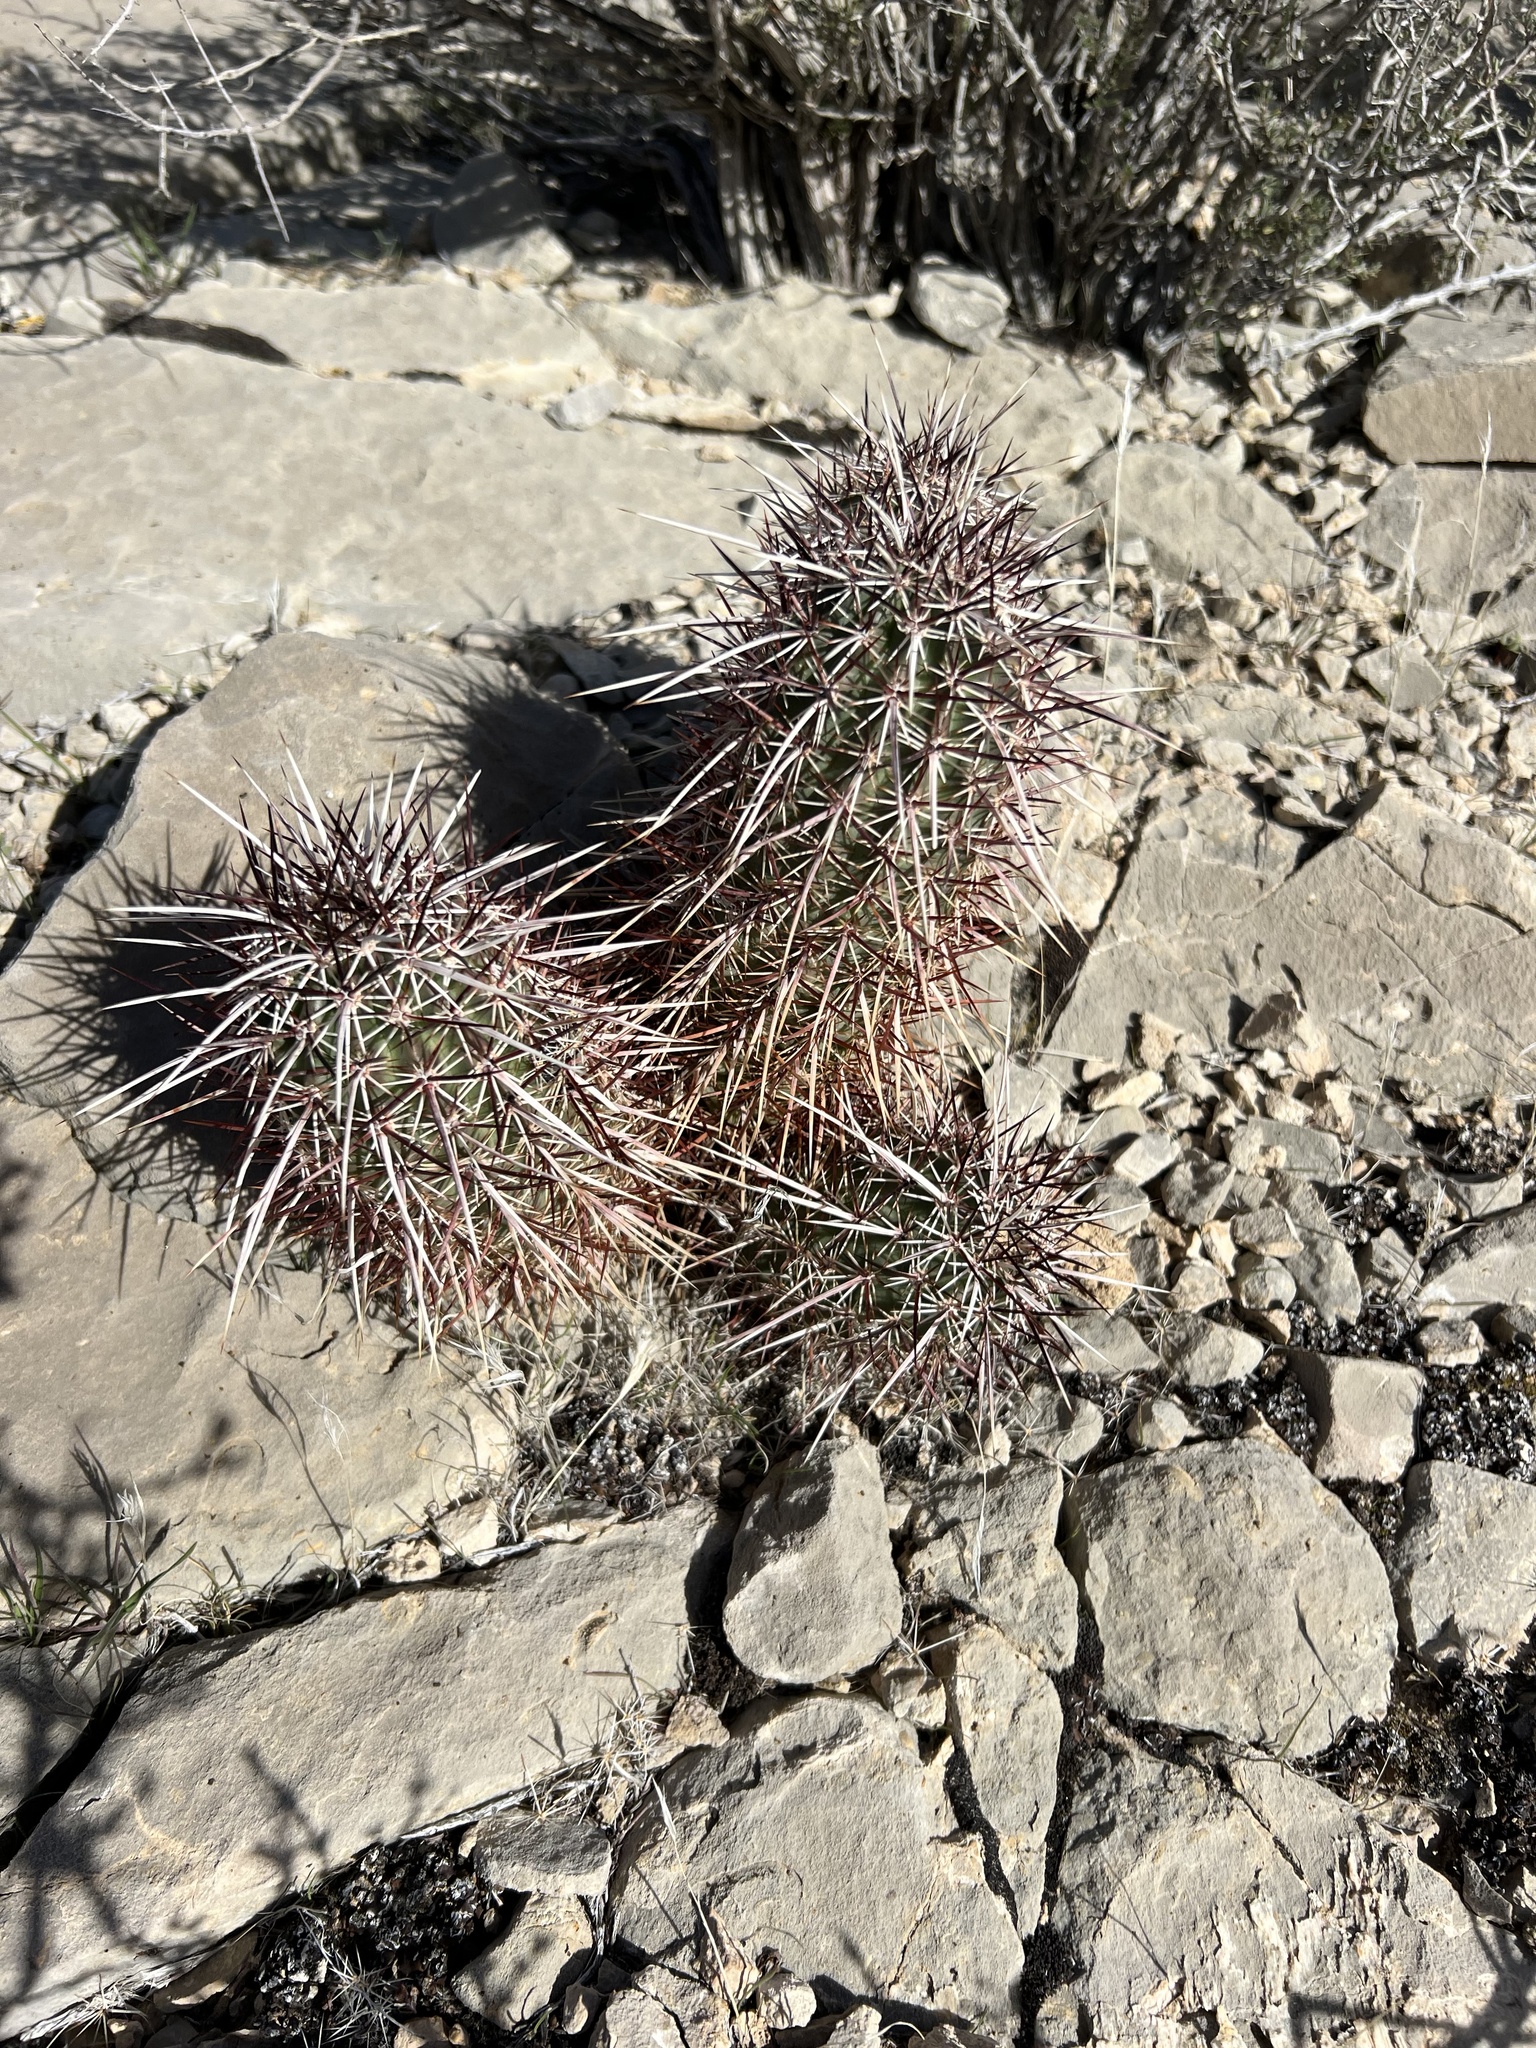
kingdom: Plantae
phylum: Tracheophyta
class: Magnoliopsida
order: Caryophyllales
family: Cactaceae
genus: Echinocereus
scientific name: Echinocereus engelmannii
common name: Engelmann's hedgehog cactus
